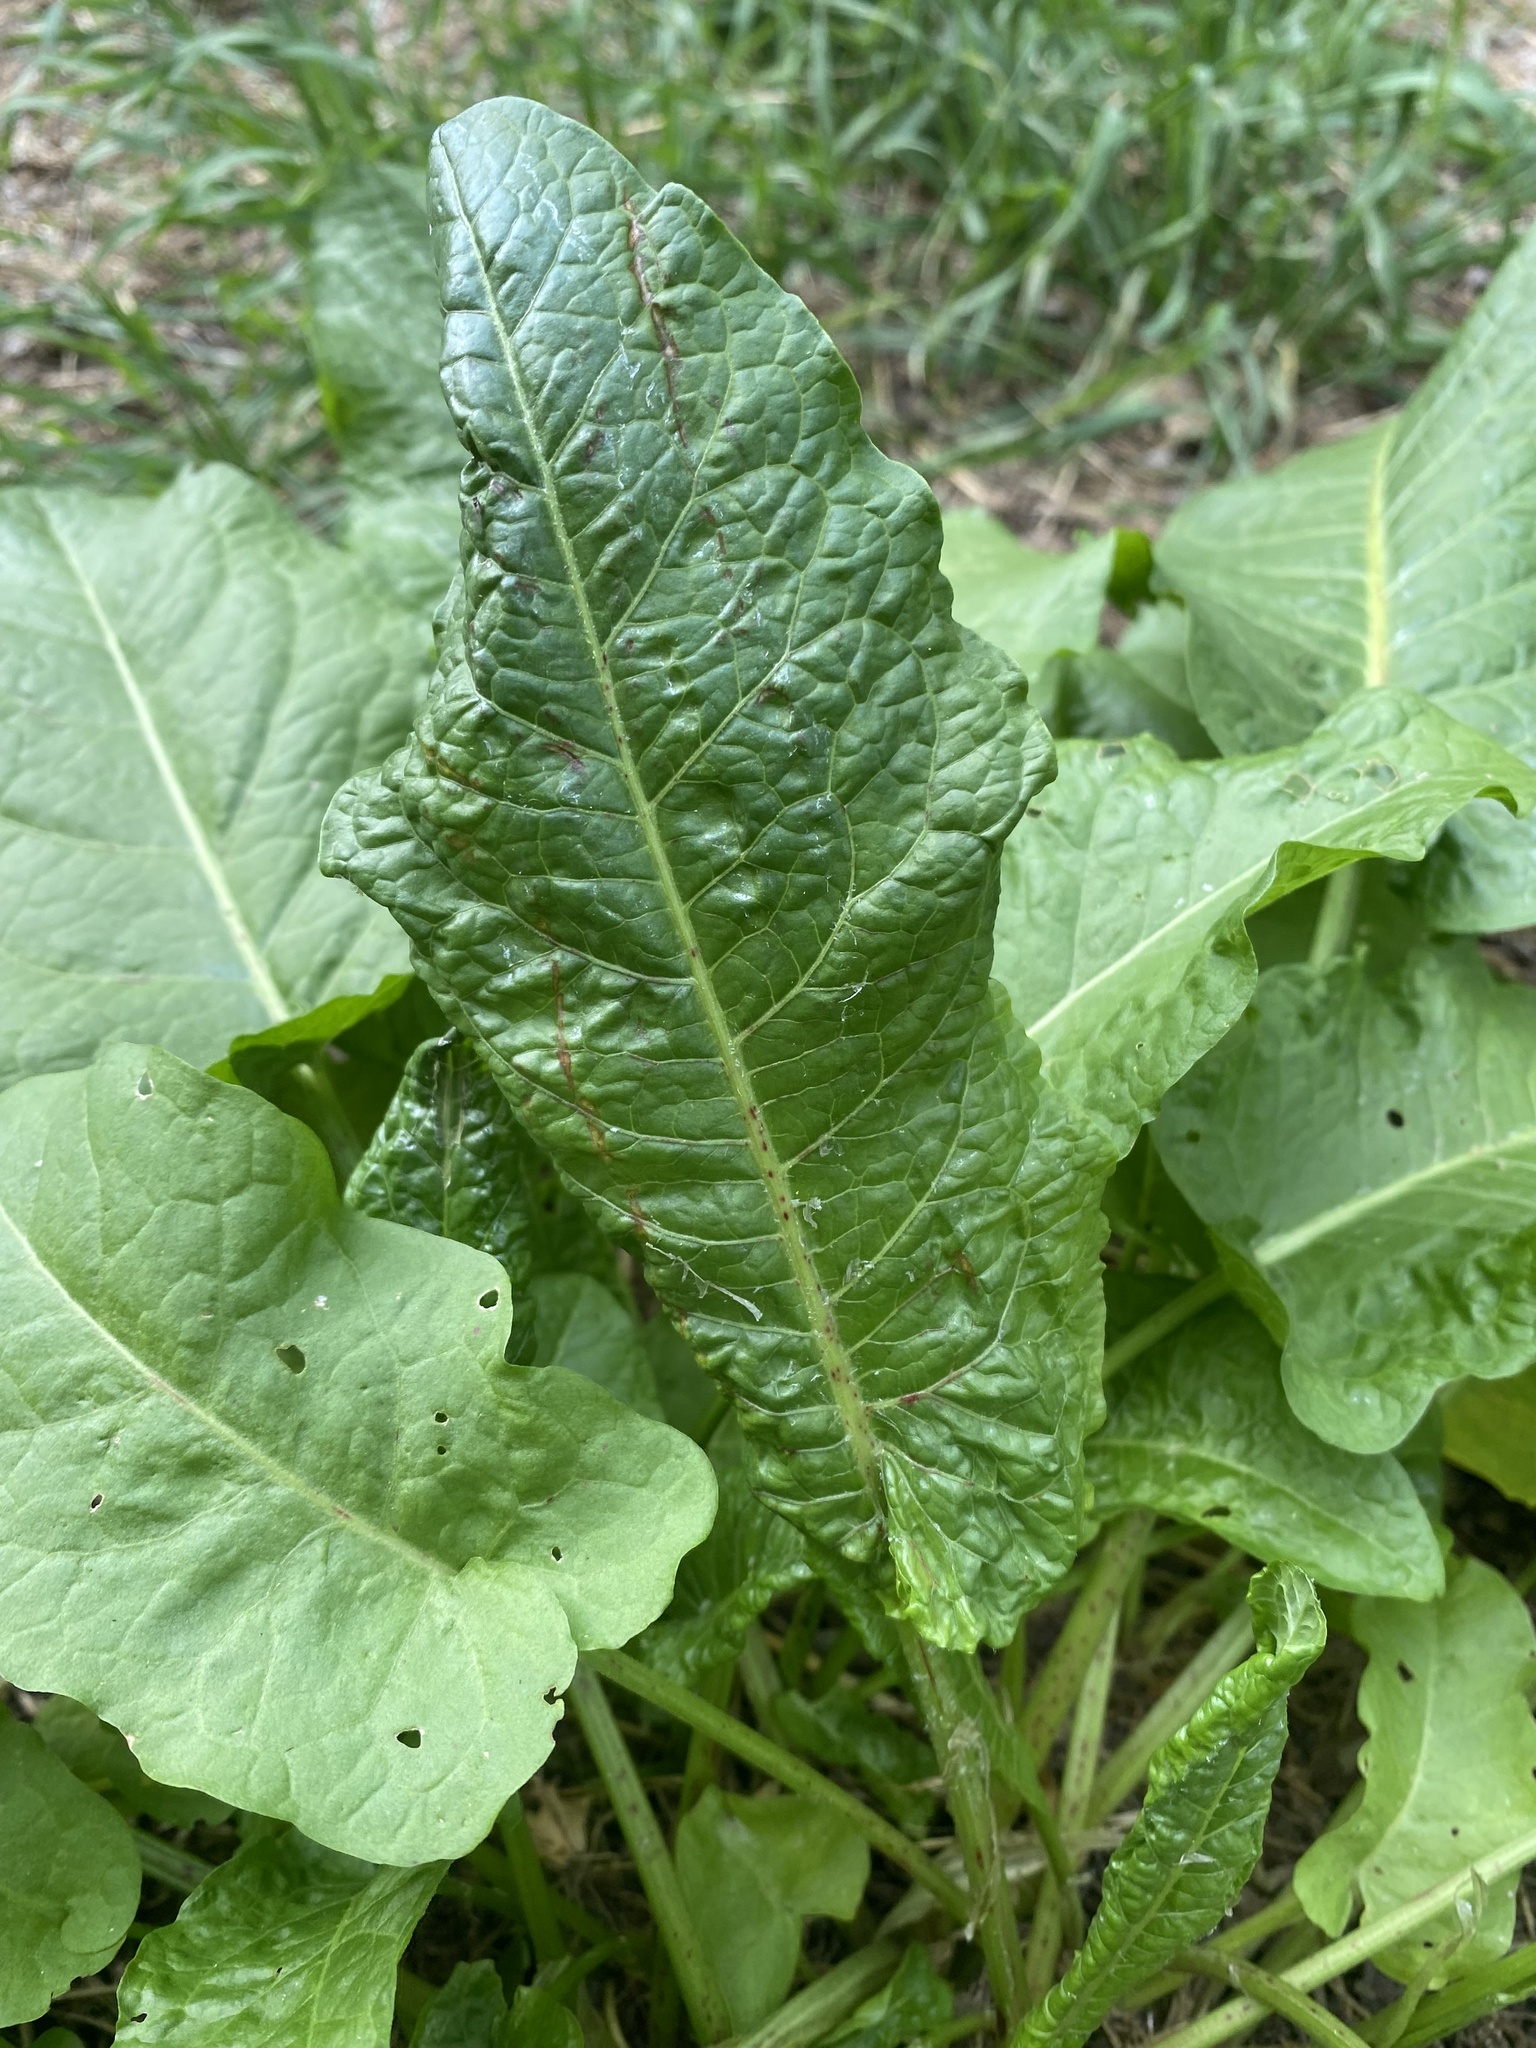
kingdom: Plantae
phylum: Tracheophyta
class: Magnoliopsida
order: Caryophyllales
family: Polygonaceae
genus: Rumex
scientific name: Rumex obtusifolius
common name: Bitter dock
